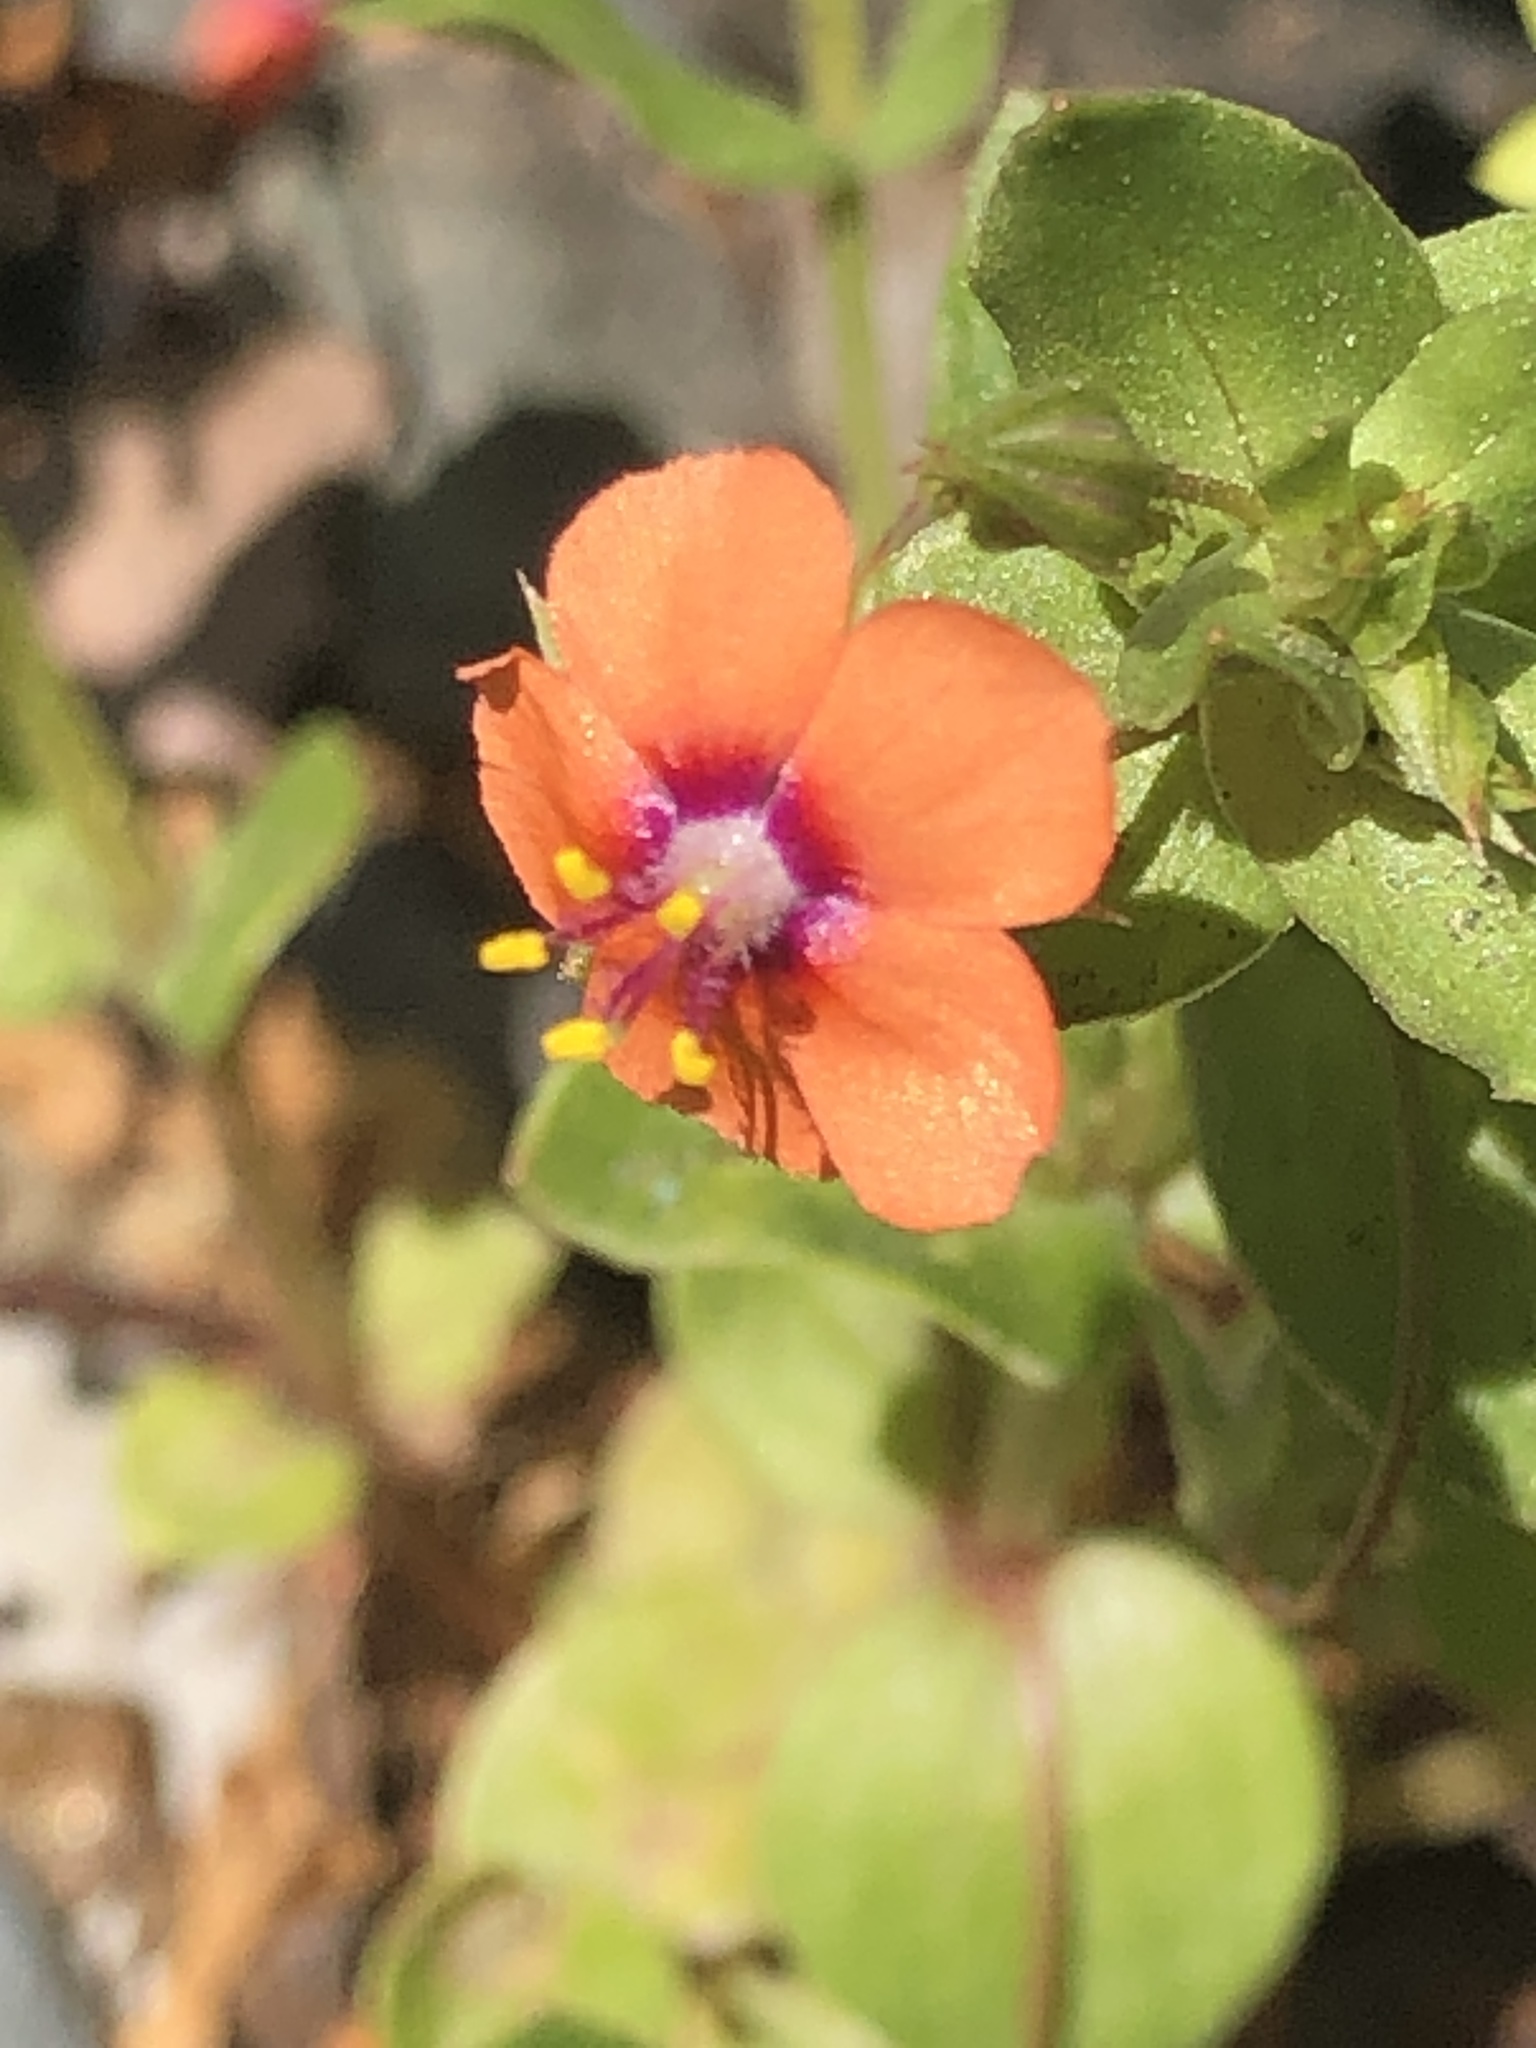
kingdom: Plantae
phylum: Tracheophyta
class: Magnoliopsida
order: Ericales
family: Primulaceae
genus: Lysimachia
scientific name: Lysimachia arvensis
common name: Scarlet pimpernel
